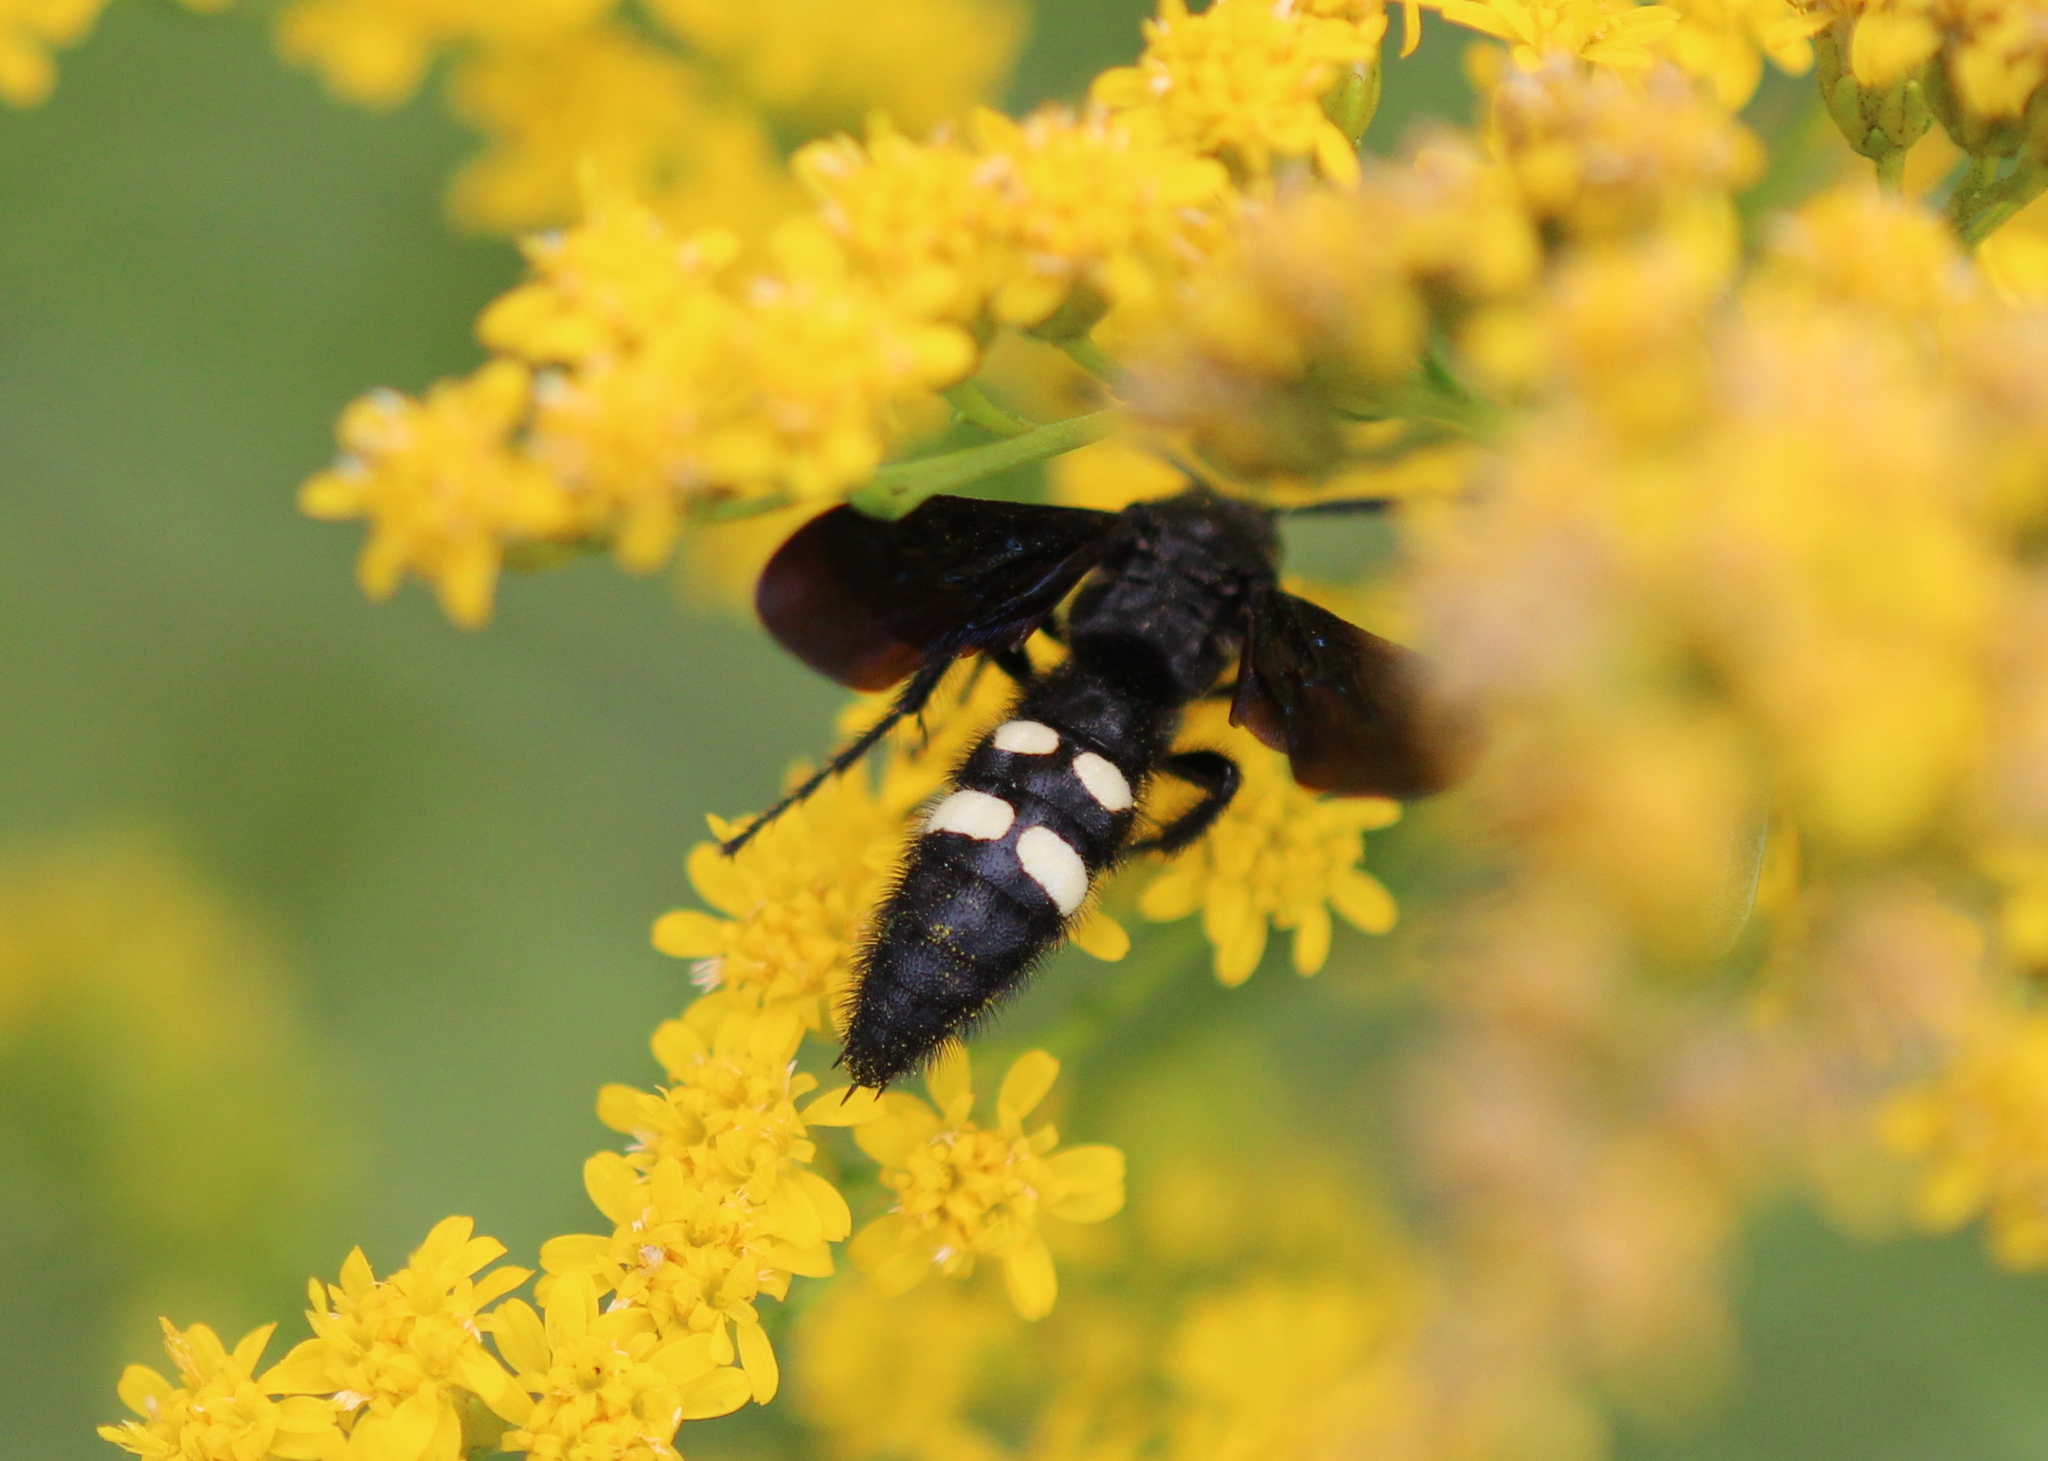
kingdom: Animalia
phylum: Arthropoda
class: Insecta
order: Hymenoptera
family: Scoliidae
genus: Scolia
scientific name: Scolia bicincta
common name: Double-banded scoliid wasp
